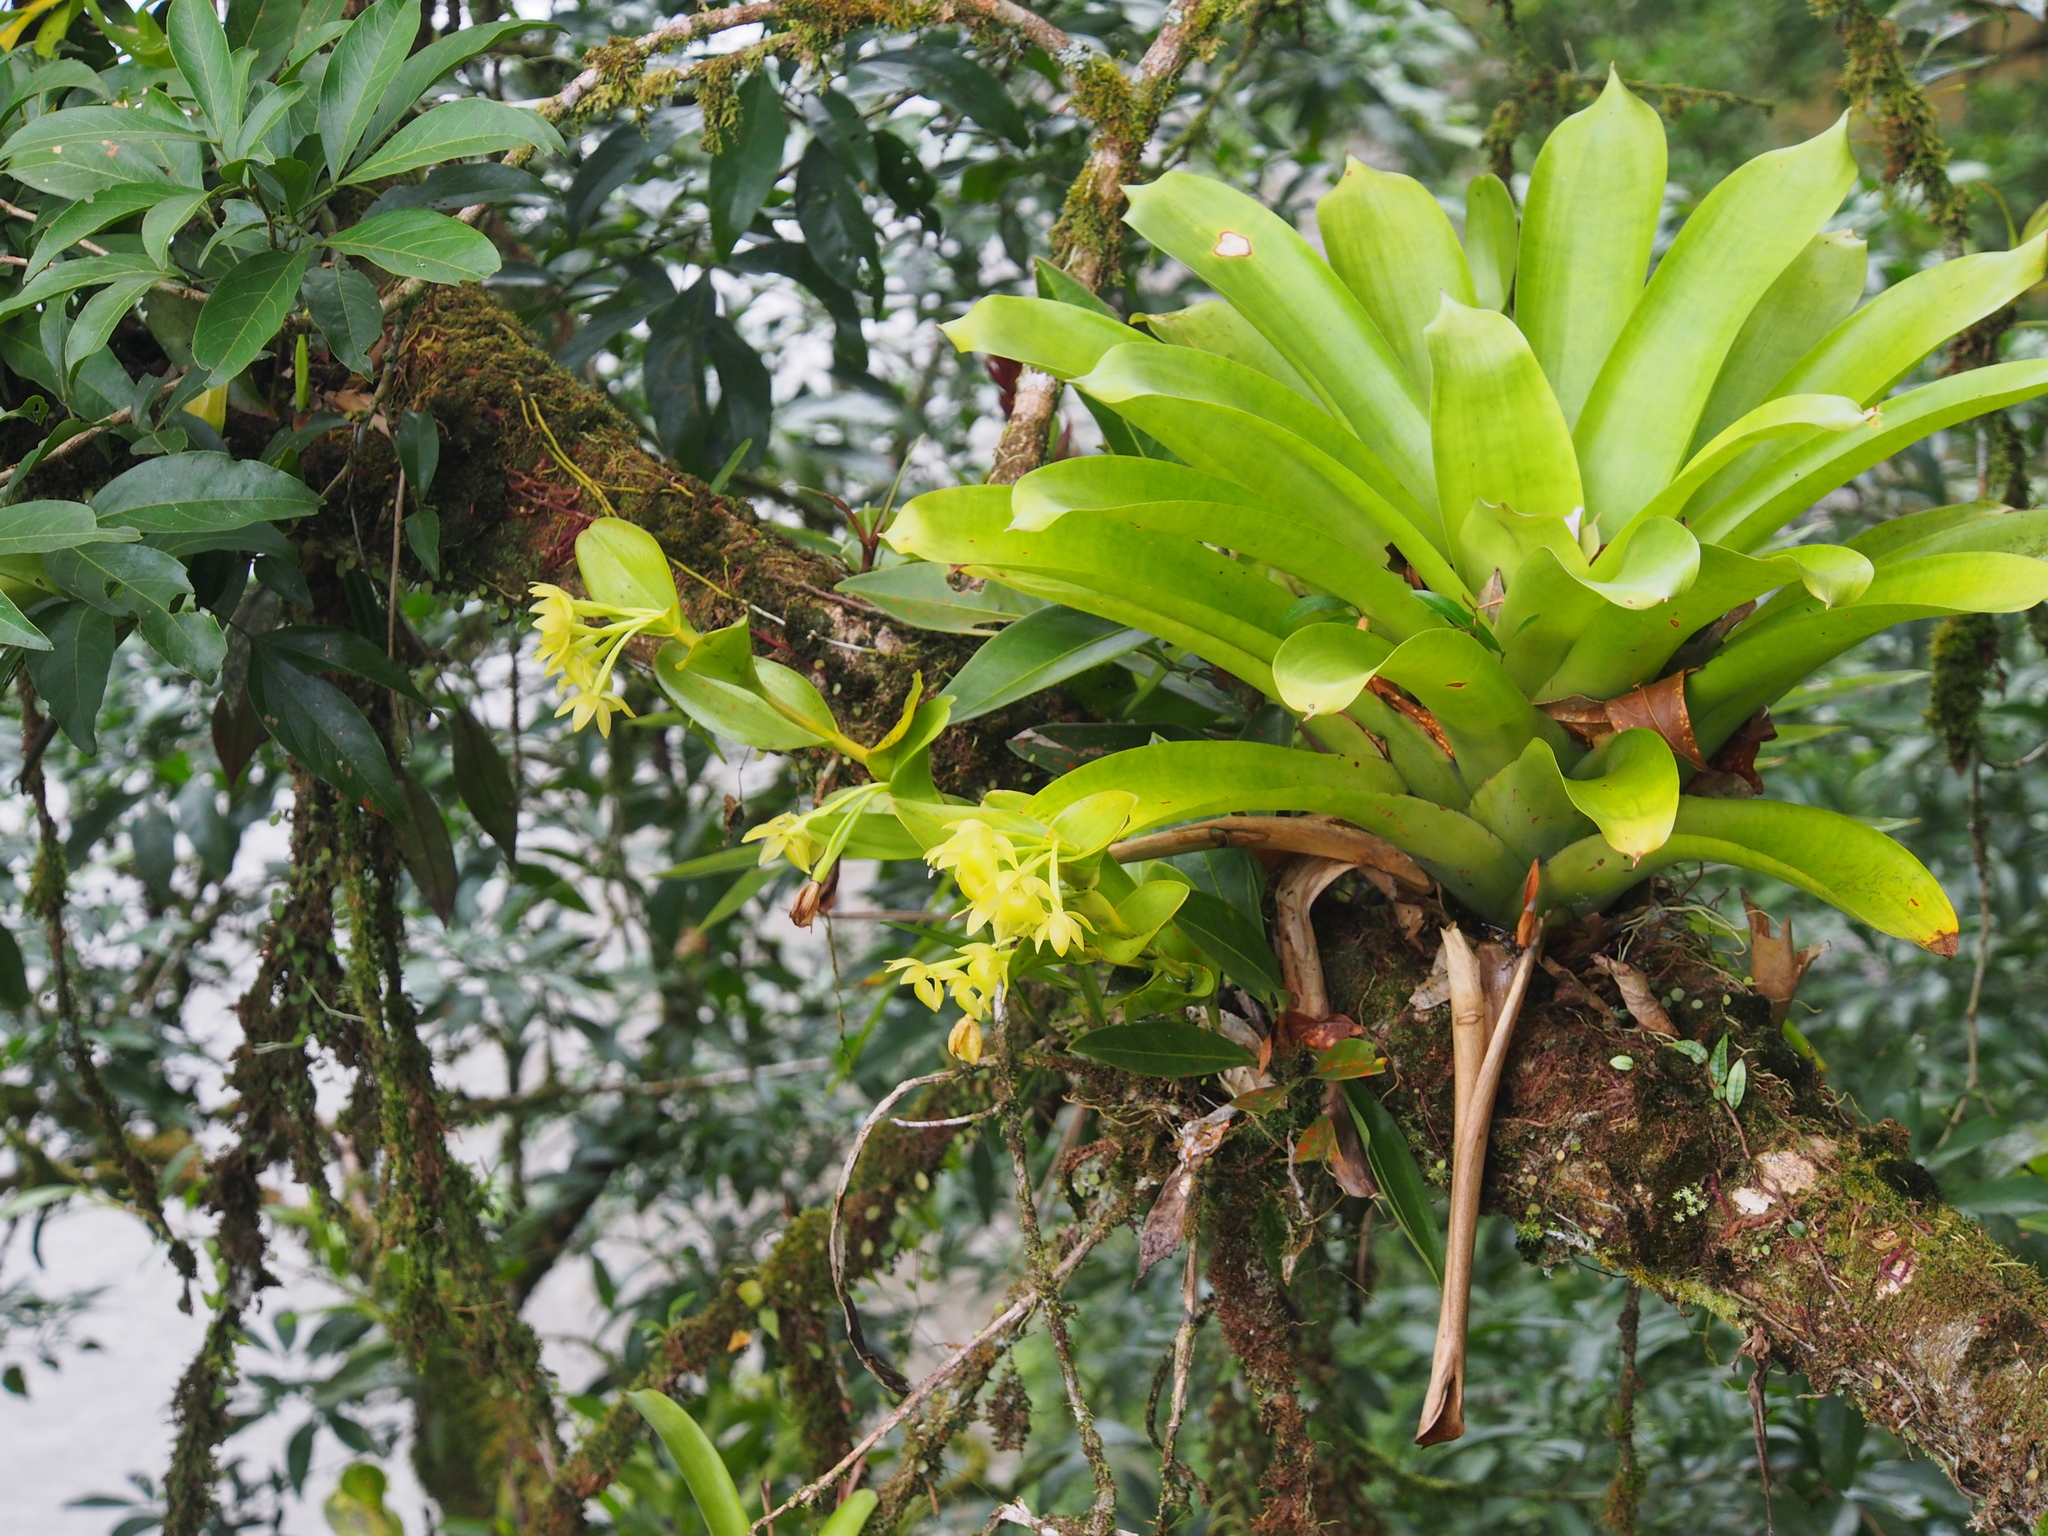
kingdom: Plantae
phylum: Tracheophyta
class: Liliopsida
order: Asparagales
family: Orchidaceae
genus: Epidendrum
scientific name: Epidendrum hunterianum
